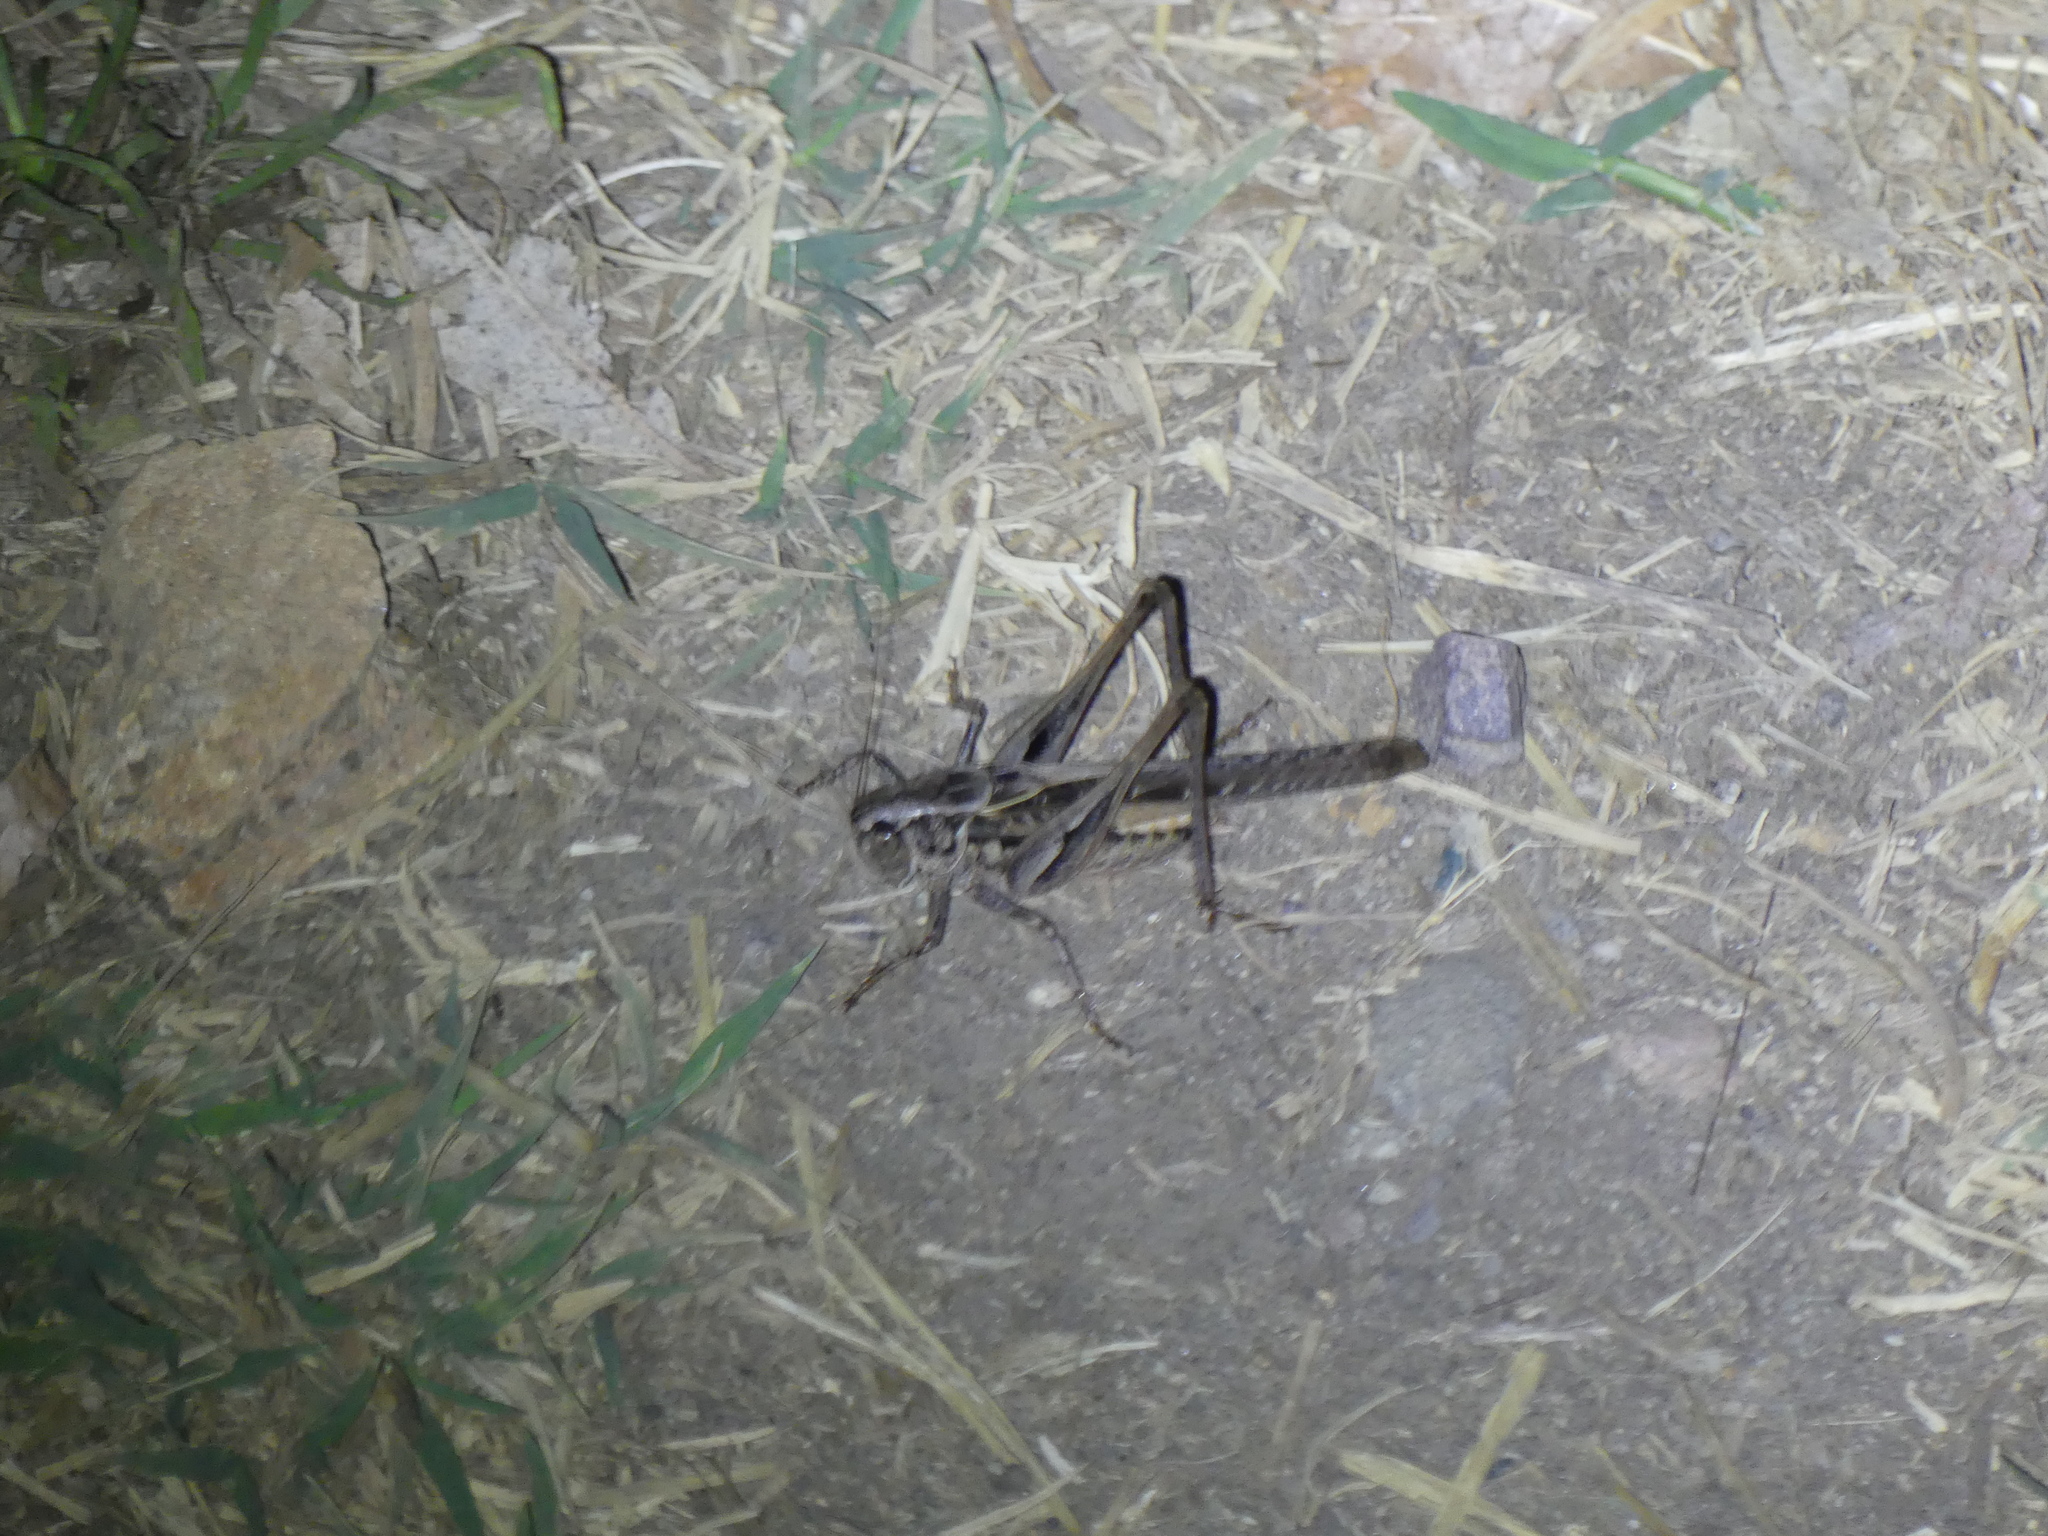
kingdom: Animalia
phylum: Arthropoda
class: Insecta
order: Orthoptera
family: Tettigoniidae
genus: Platycleis
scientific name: Platycleis affinis
